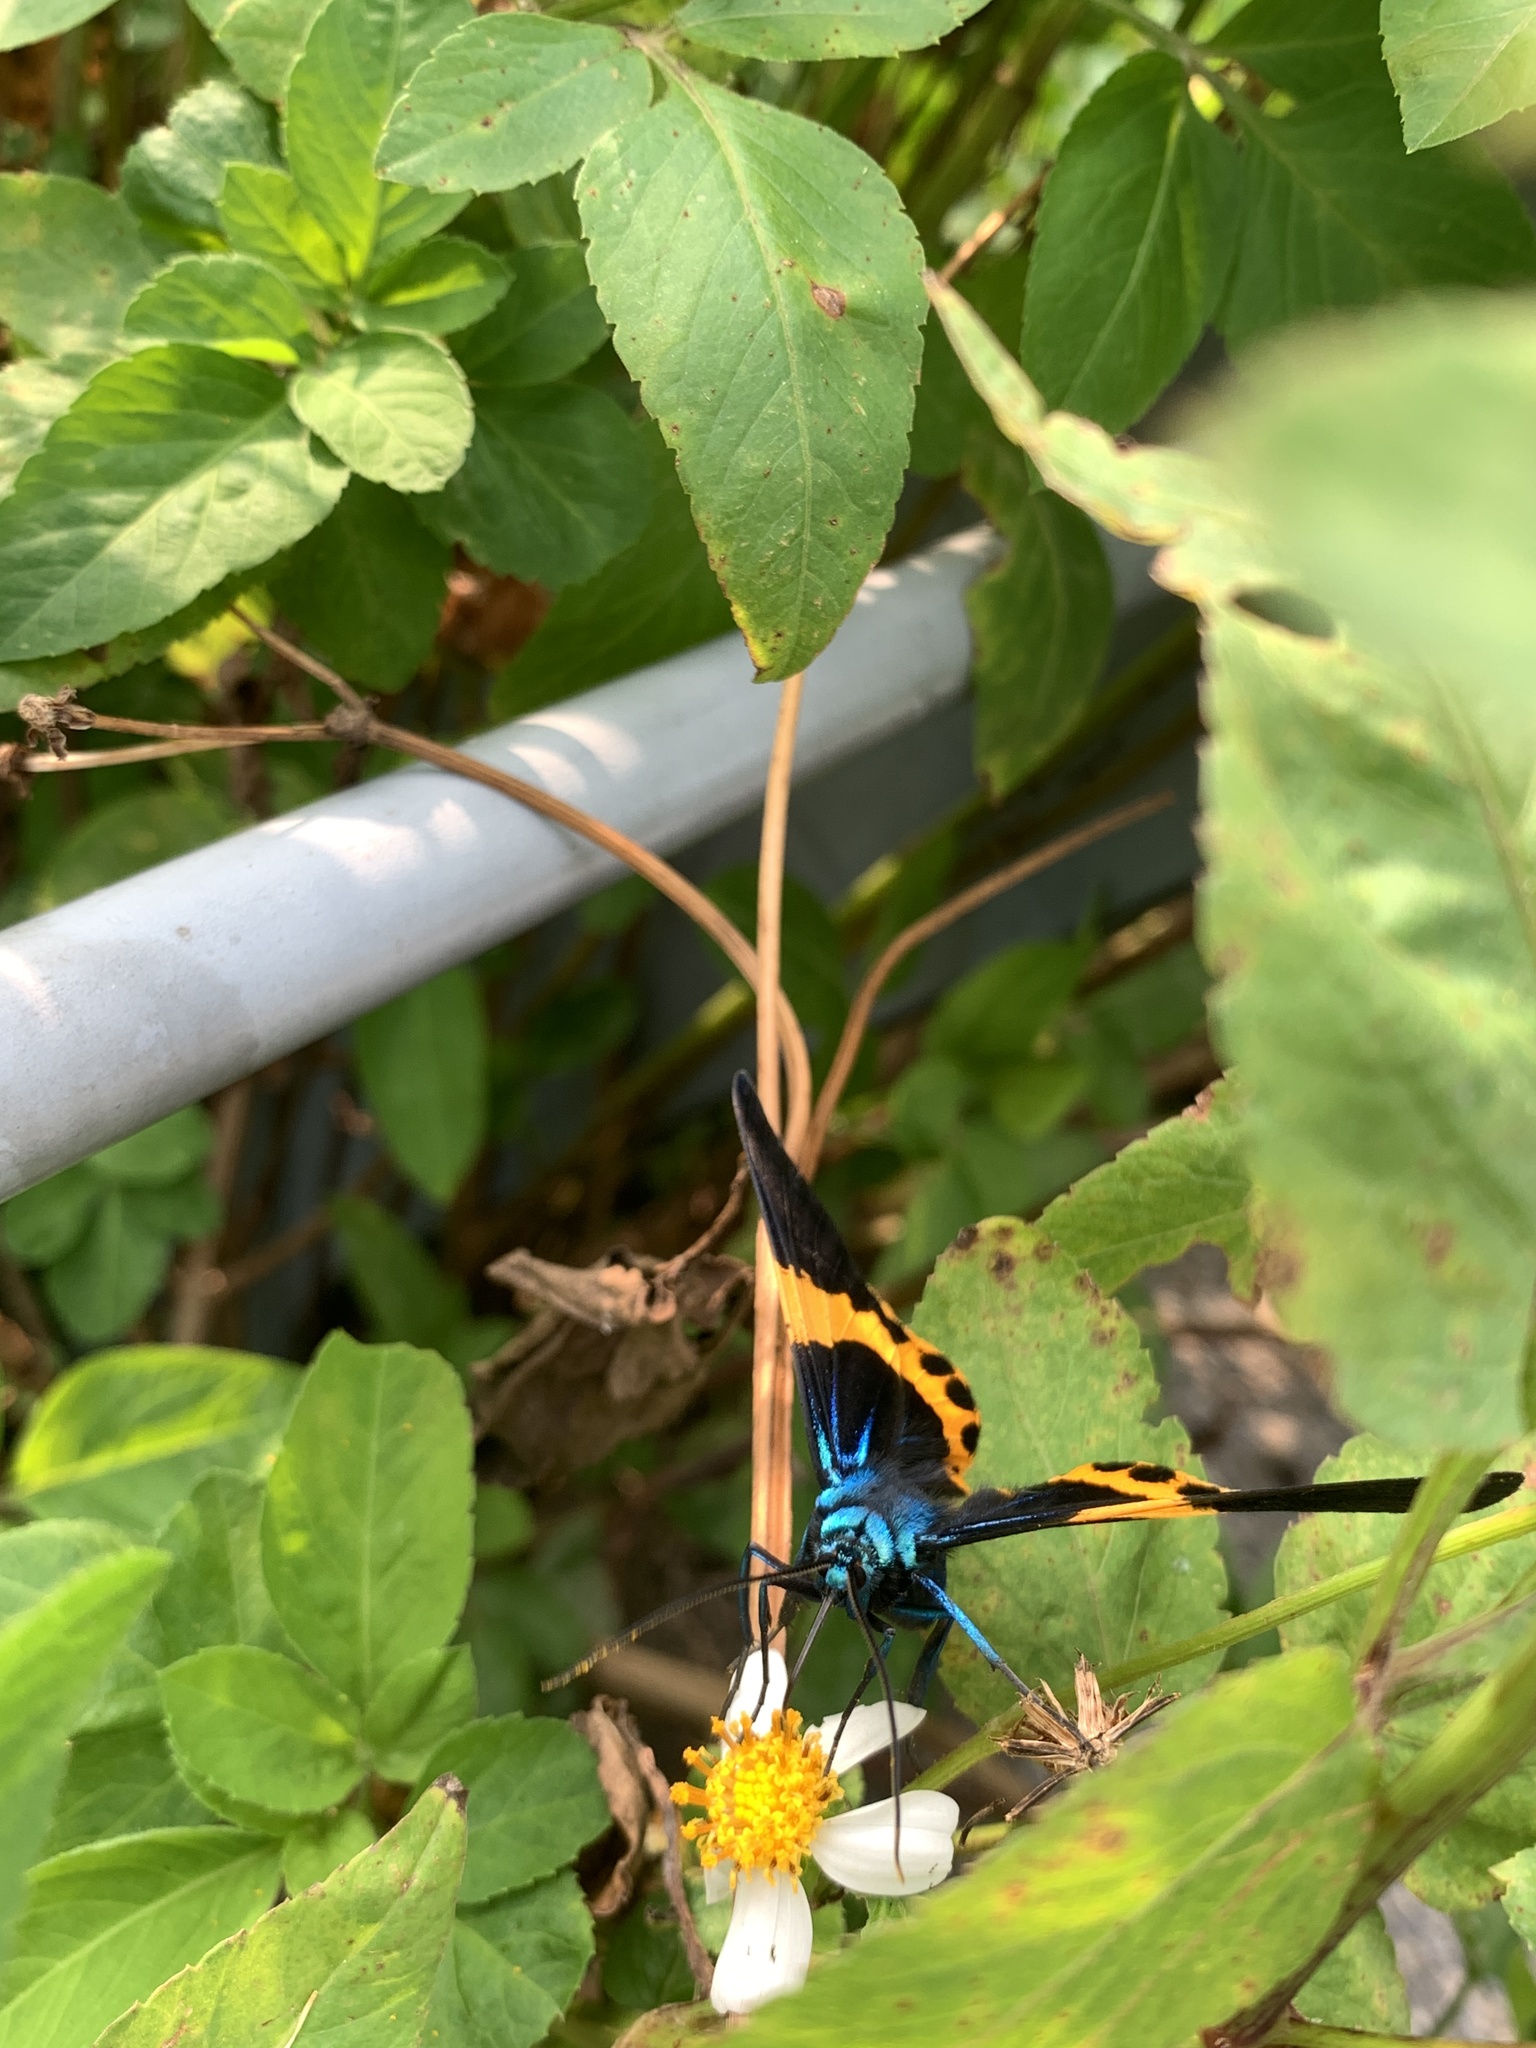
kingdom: Animalia
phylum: Arthropoda
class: Insecta
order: Lepidoptera
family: Geometridae
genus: Milionia
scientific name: Milionia basalis
